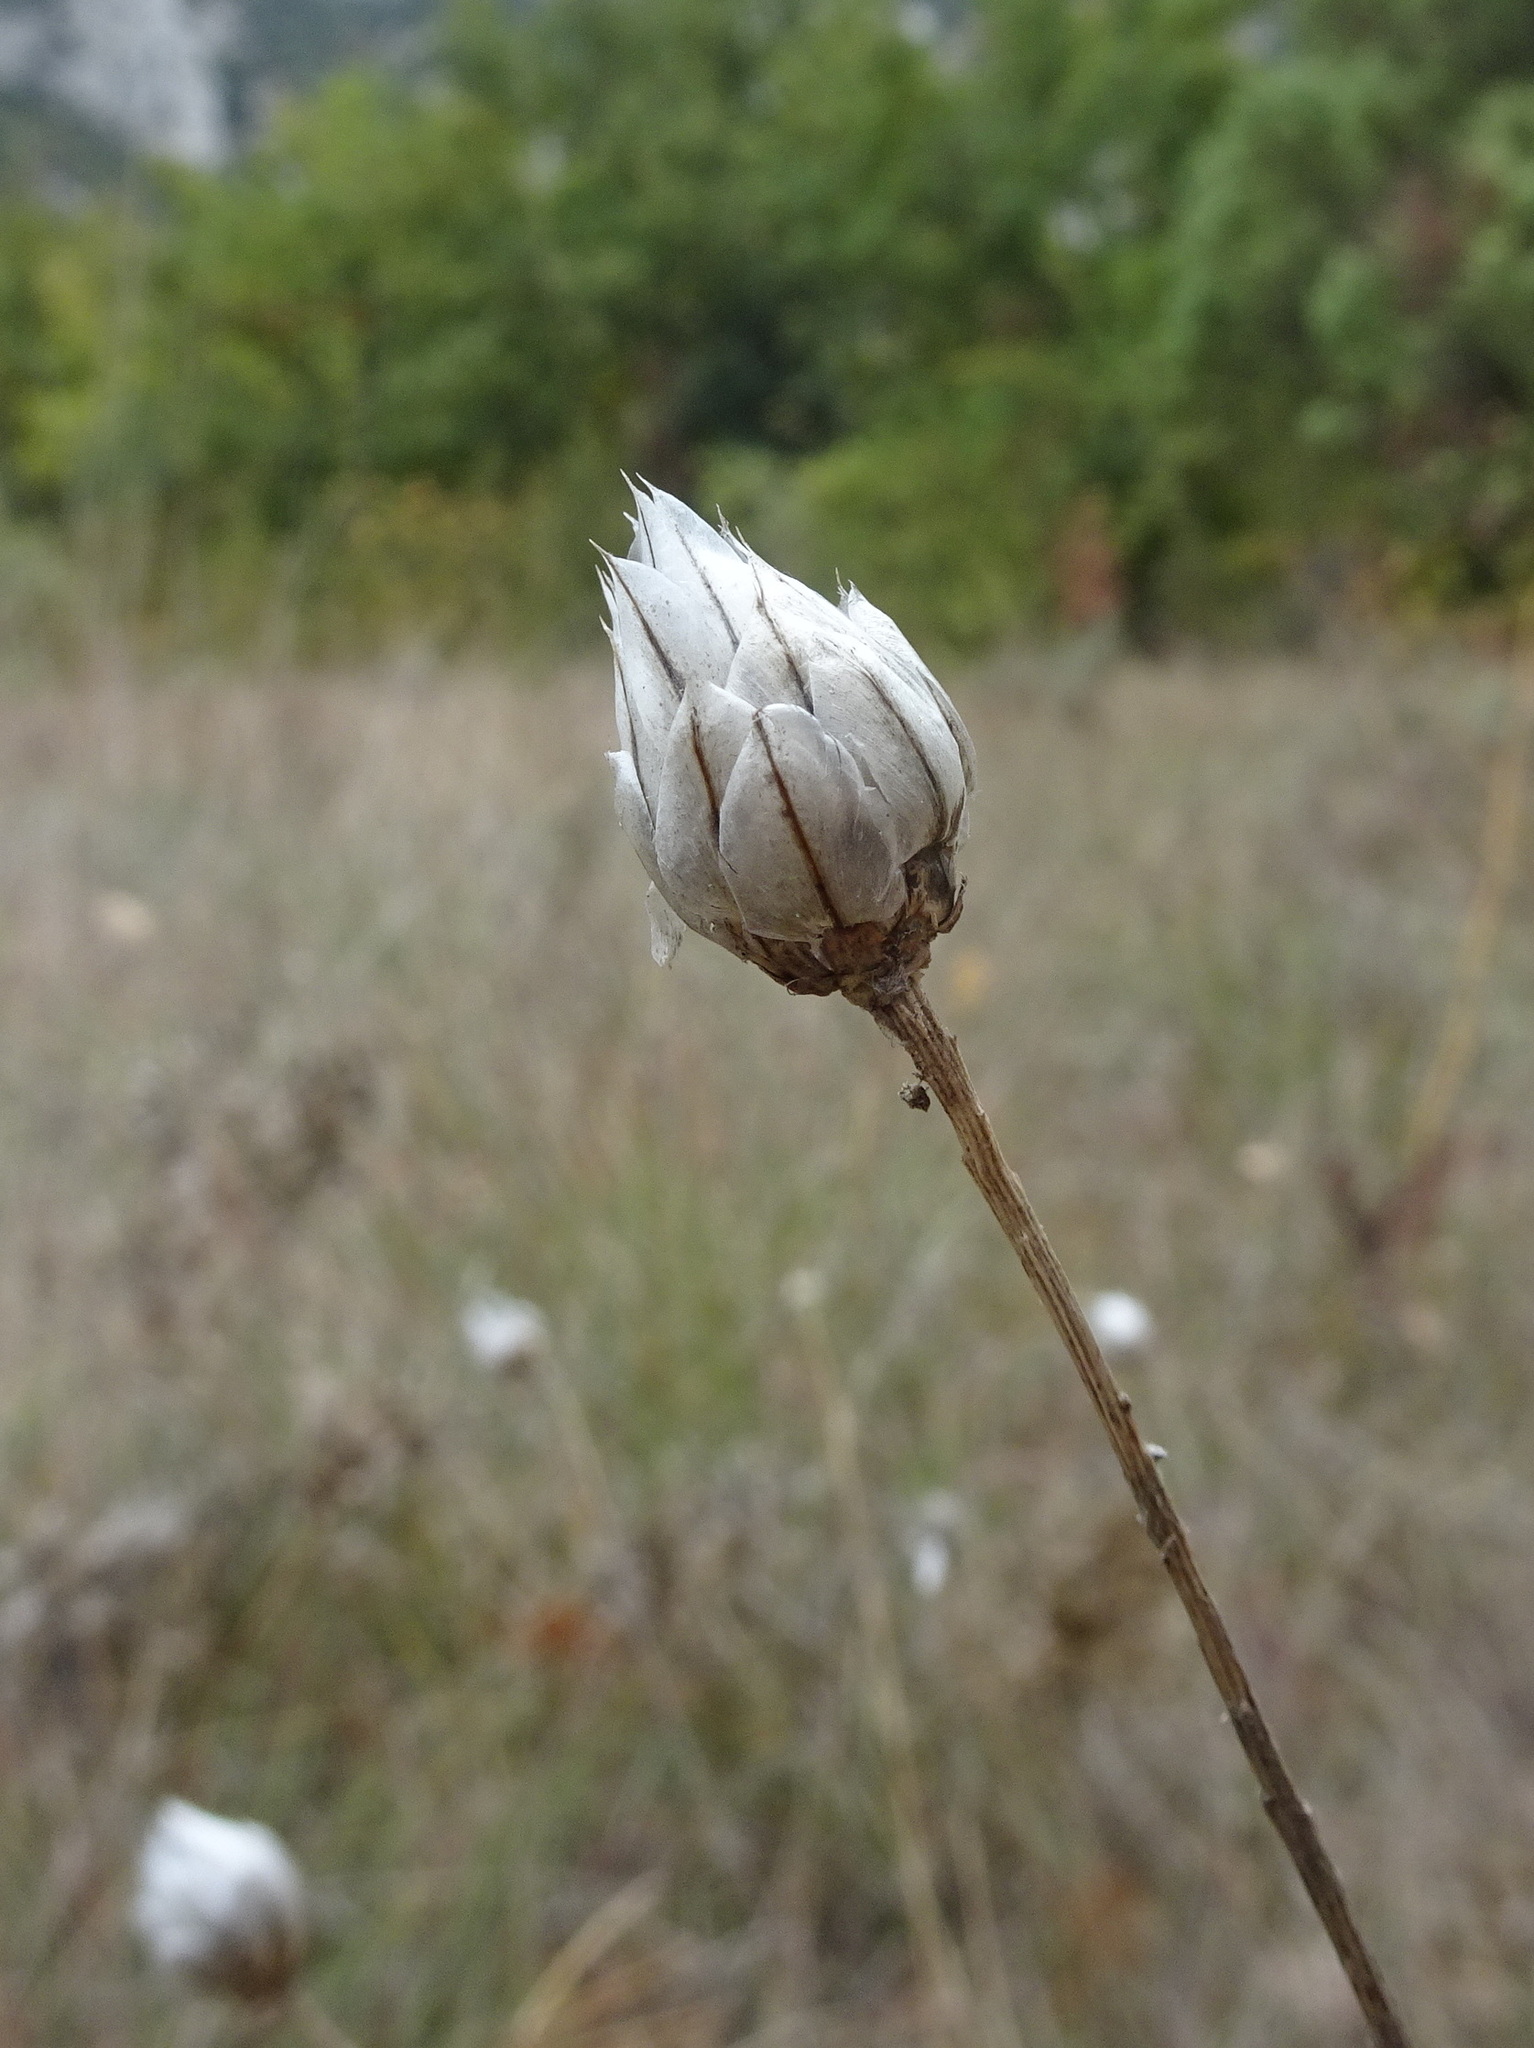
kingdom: Plantae
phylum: Tracheophyta
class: Magnoliopsida
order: Asterales
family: Asteraceae
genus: Catananche
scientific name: Catananche caerulea
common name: Blue cupidone
